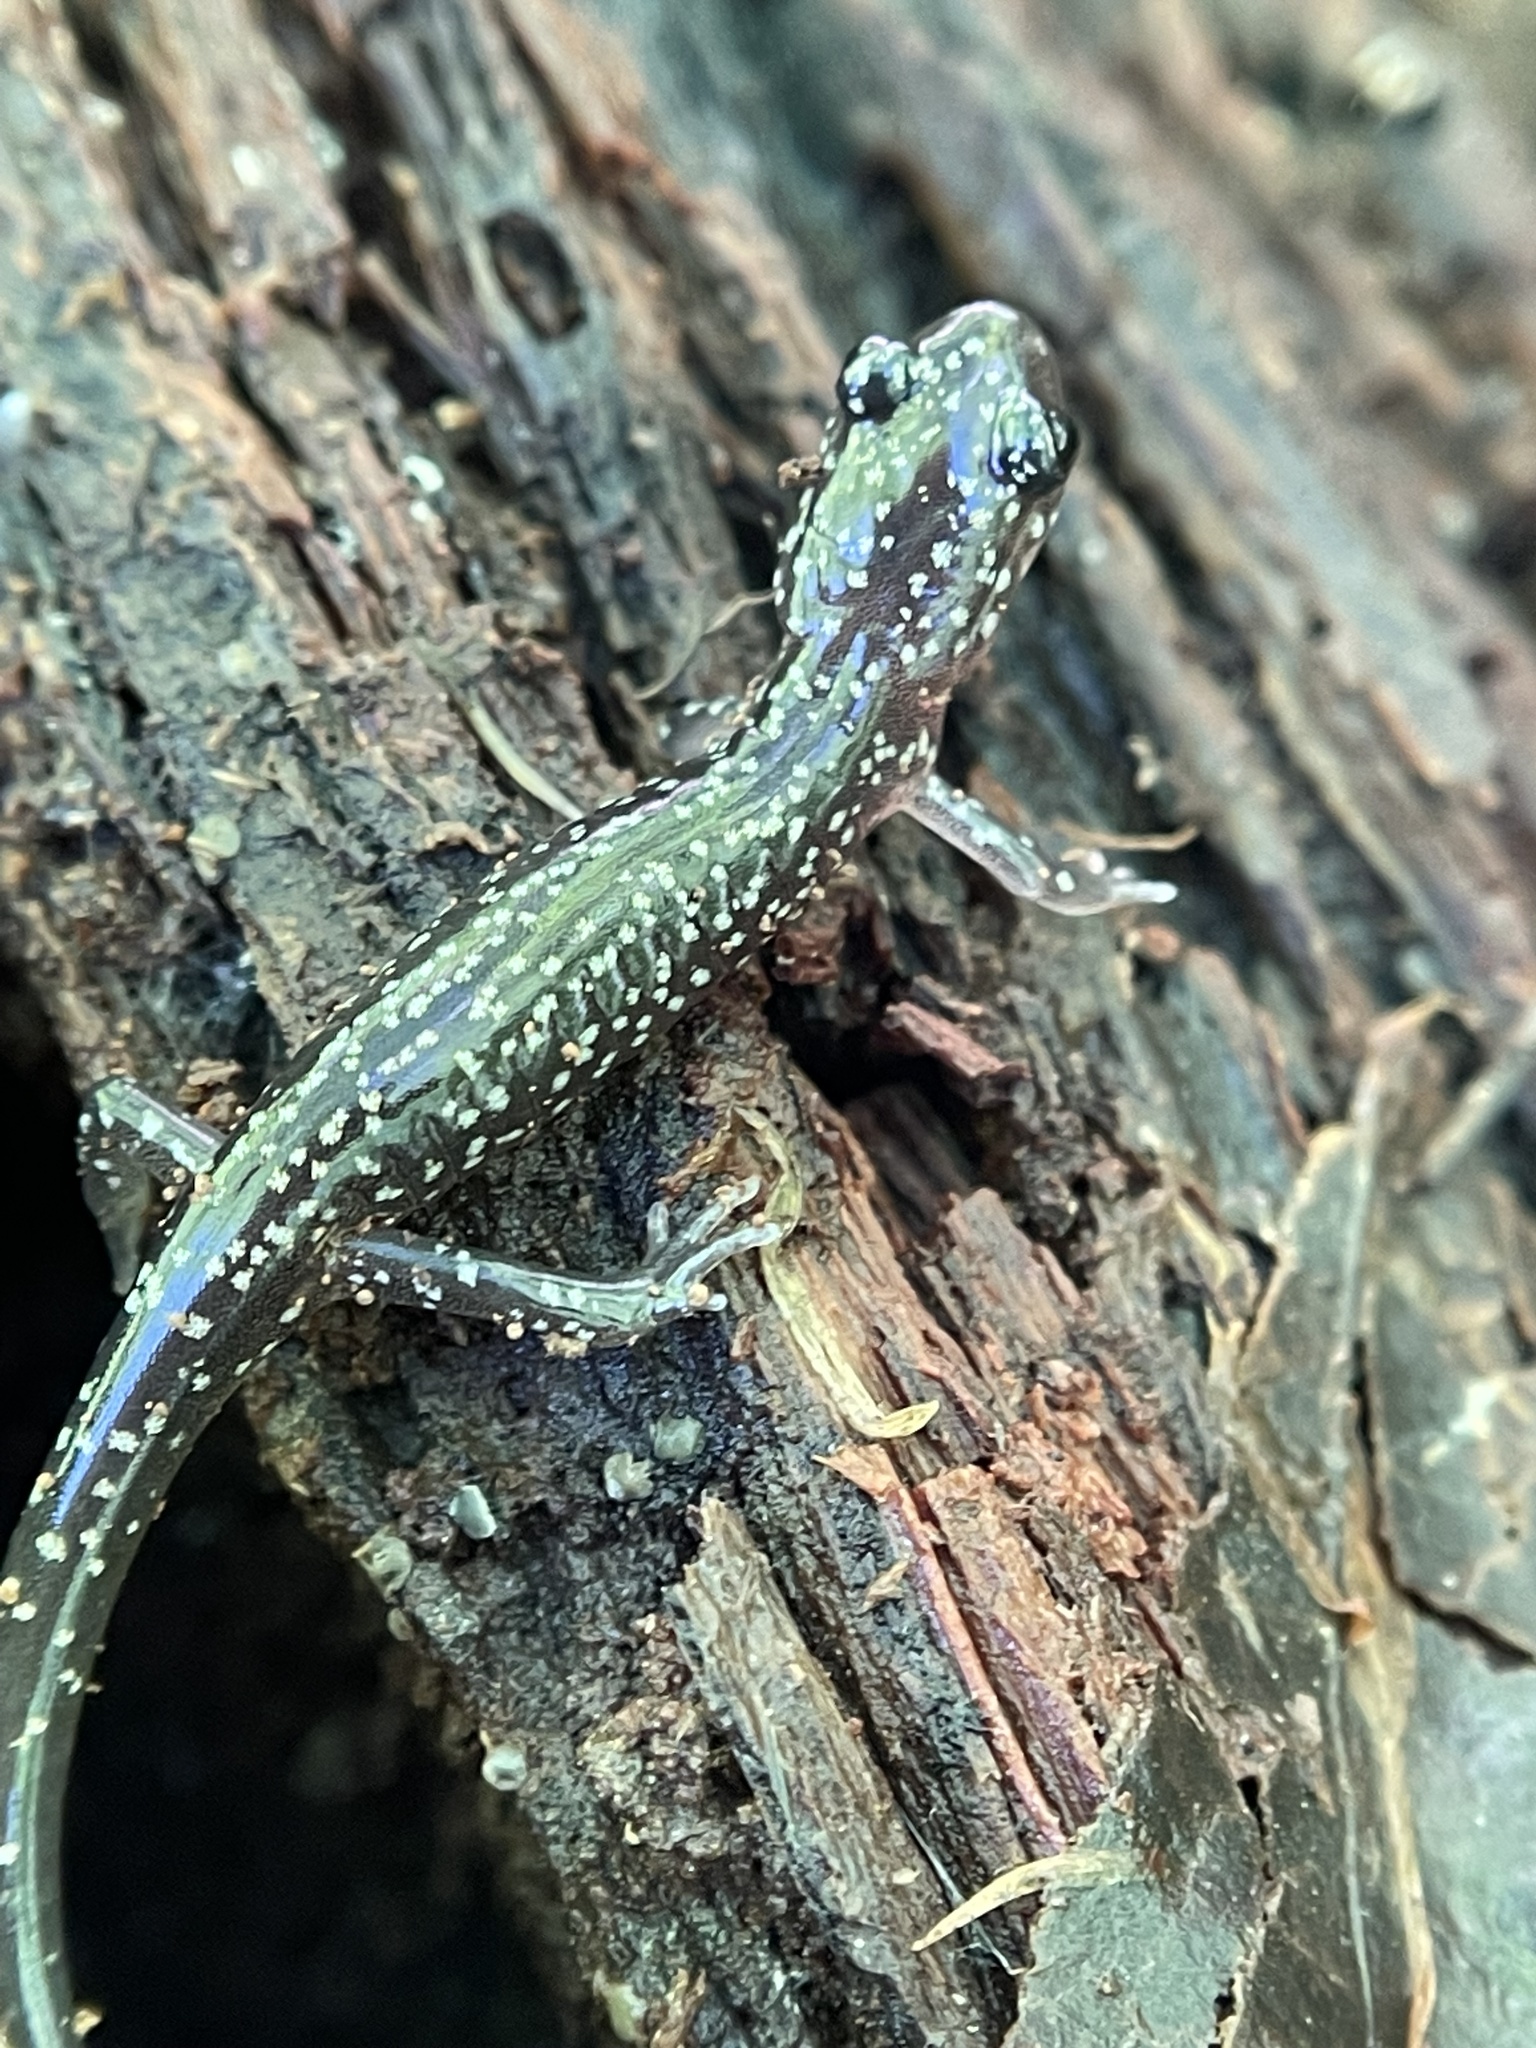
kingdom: Animalia
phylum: Chordata
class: Amphibia
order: Caudata
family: Plethodontidae
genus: Plethodon
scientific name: Plethodon glutinosus
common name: Northern slimy salamander
